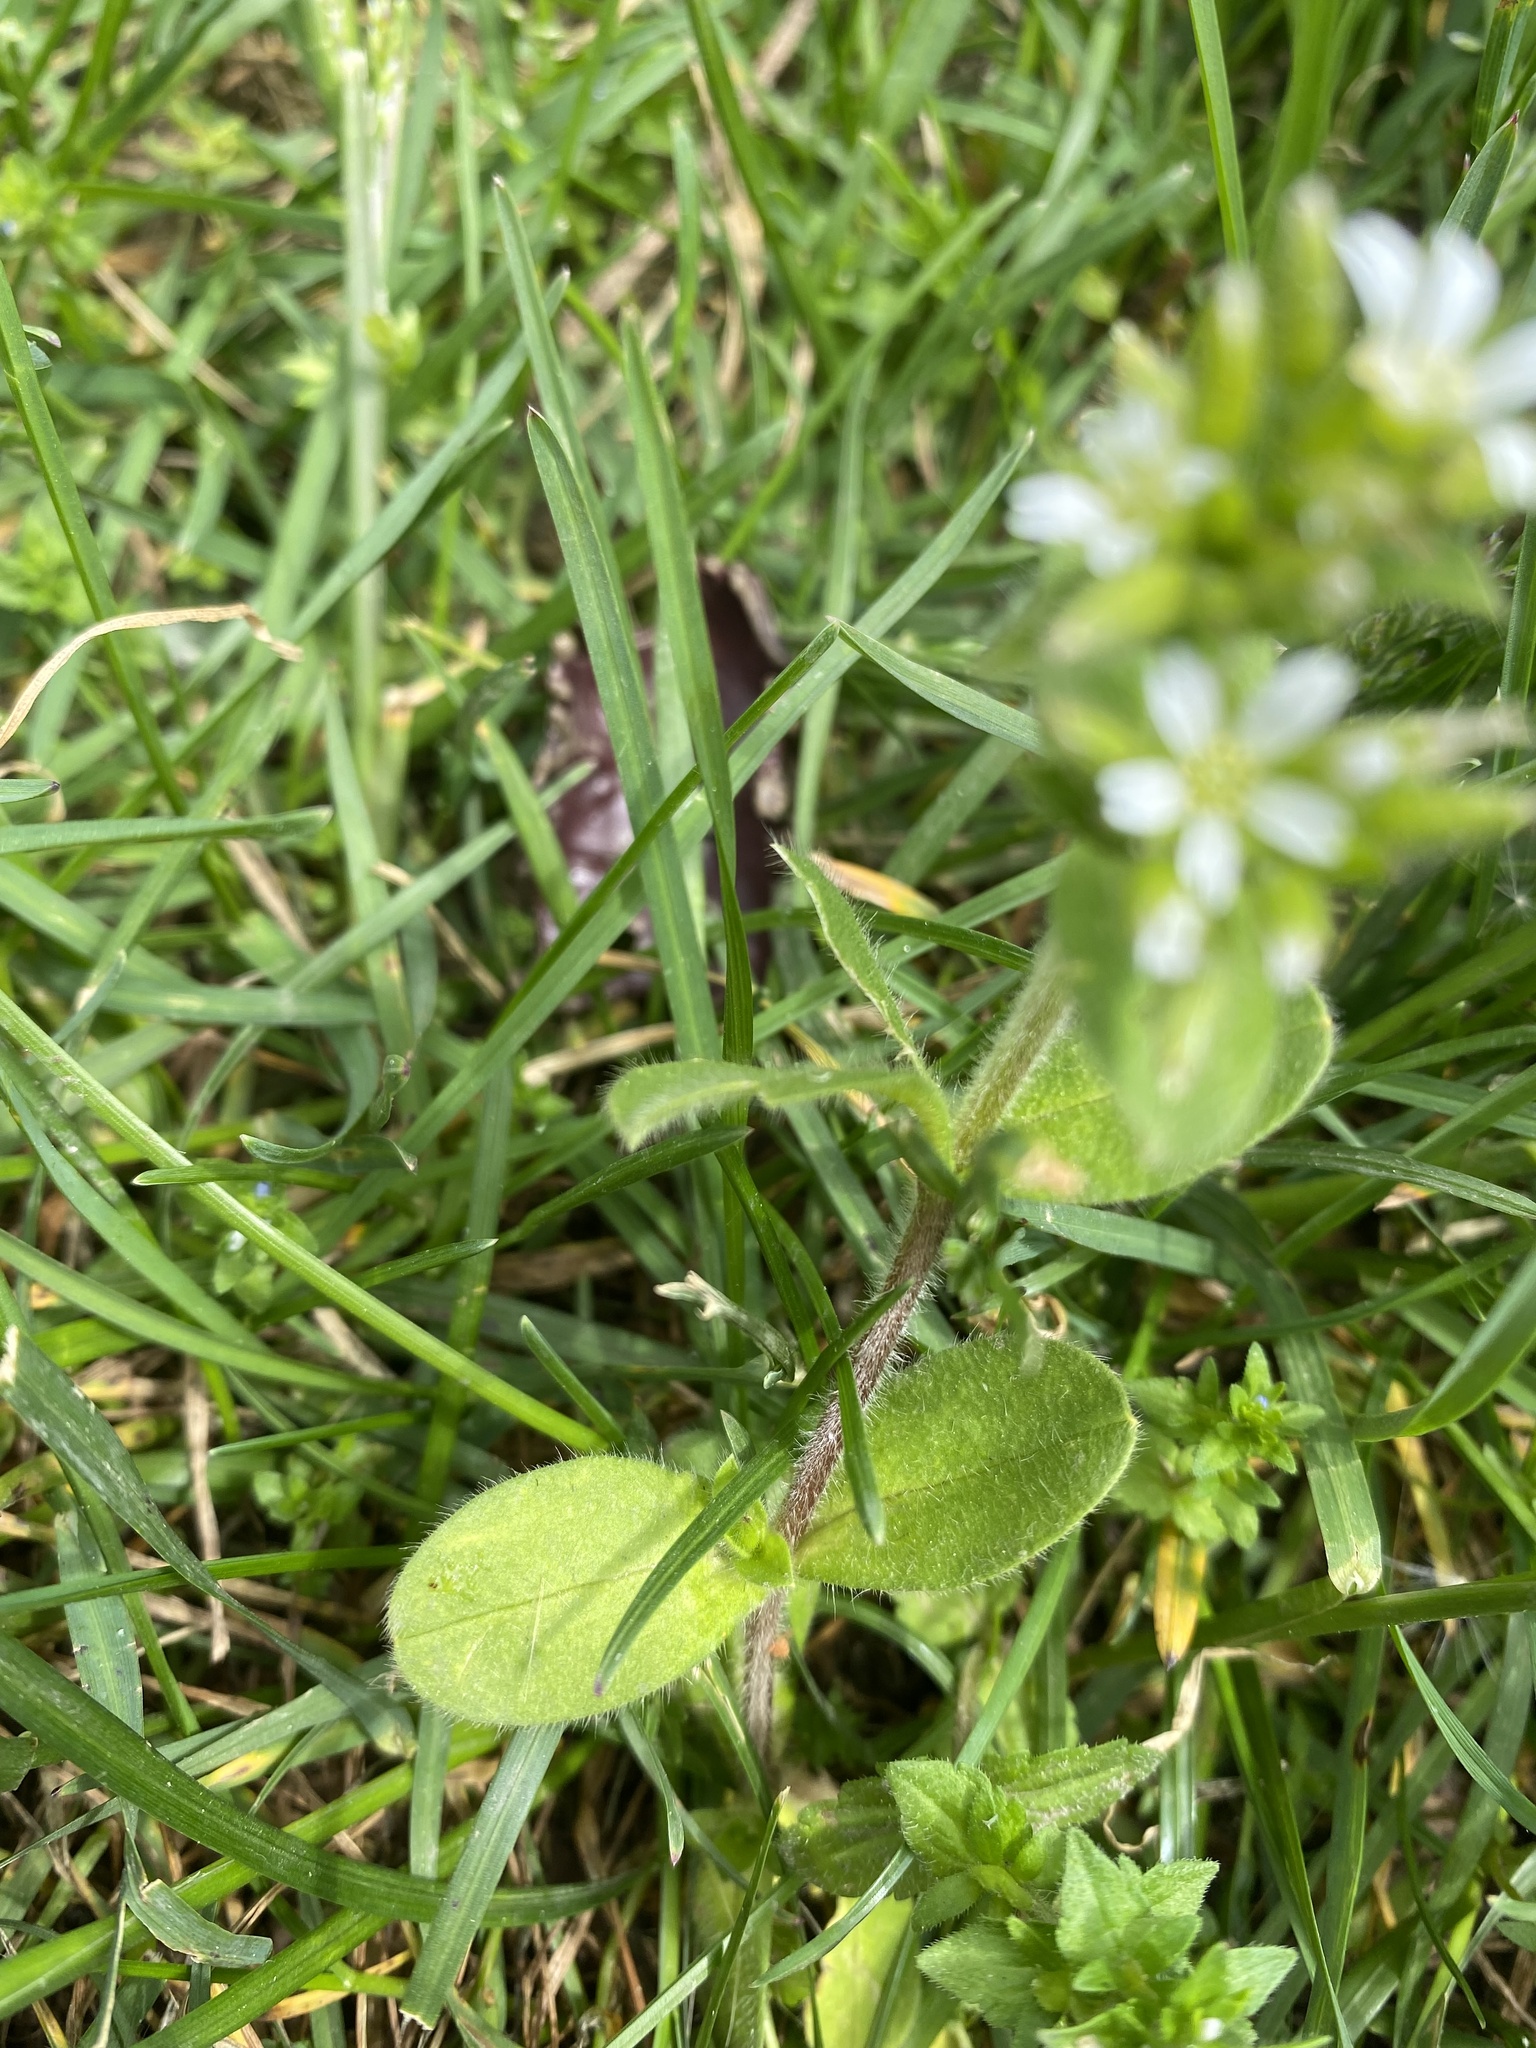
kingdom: Plantae
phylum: Tracheophyta
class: Magnoliopsida
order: Caryophyllales
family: Caryophyllaceae
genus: Cerastium
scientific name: Cerastium glomeratum
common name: Sticky chickweed
